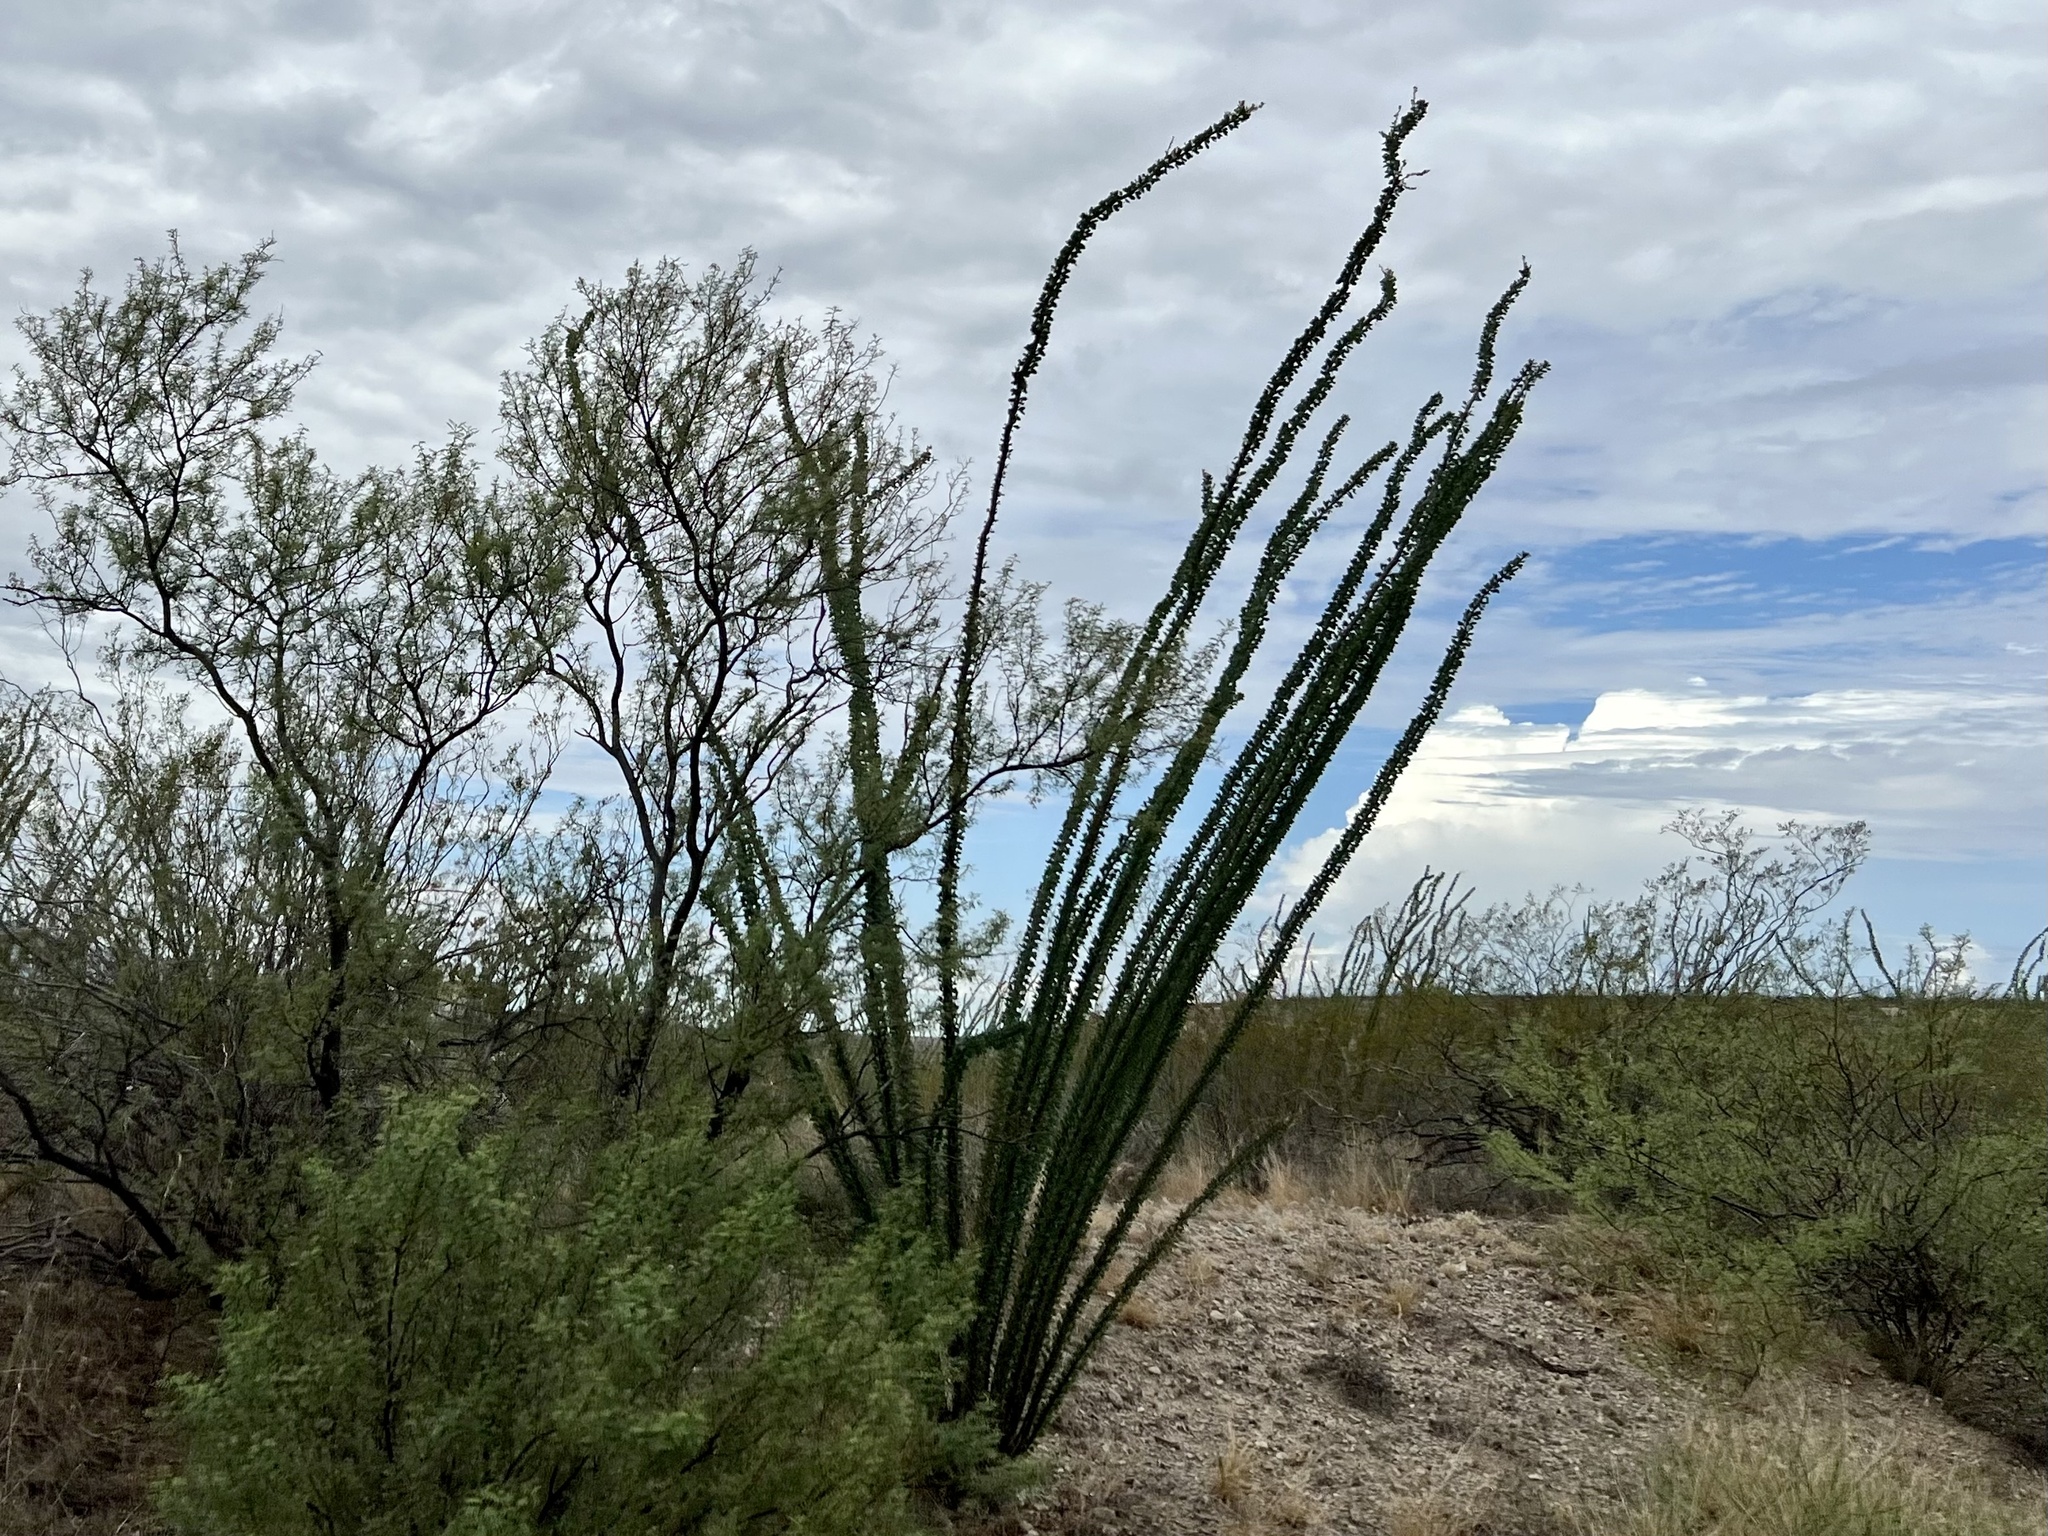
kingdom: Plantae
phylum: Tracheophyta
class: Magnoliopsida
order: Ericales
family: Fouquieriaceae
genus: Fouquieria
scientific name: Fouquieria splendens
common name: Vine-cactus
